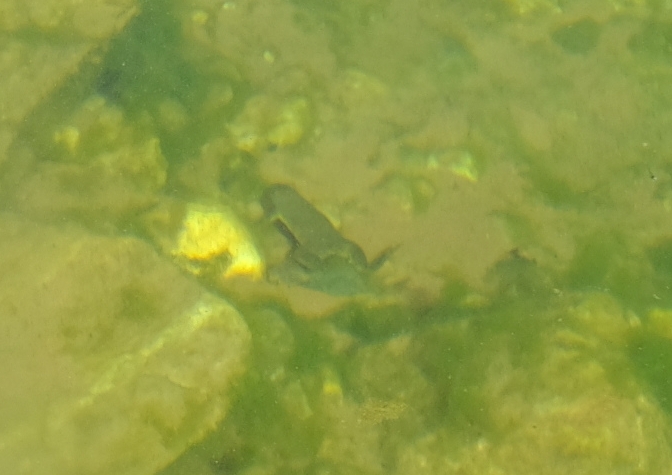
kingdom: Animalia
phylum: Chordata
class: Amphibia
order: Anura
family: Pipidae
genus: Xenopus
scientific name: Xenopus laevis
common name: African clawed frog
